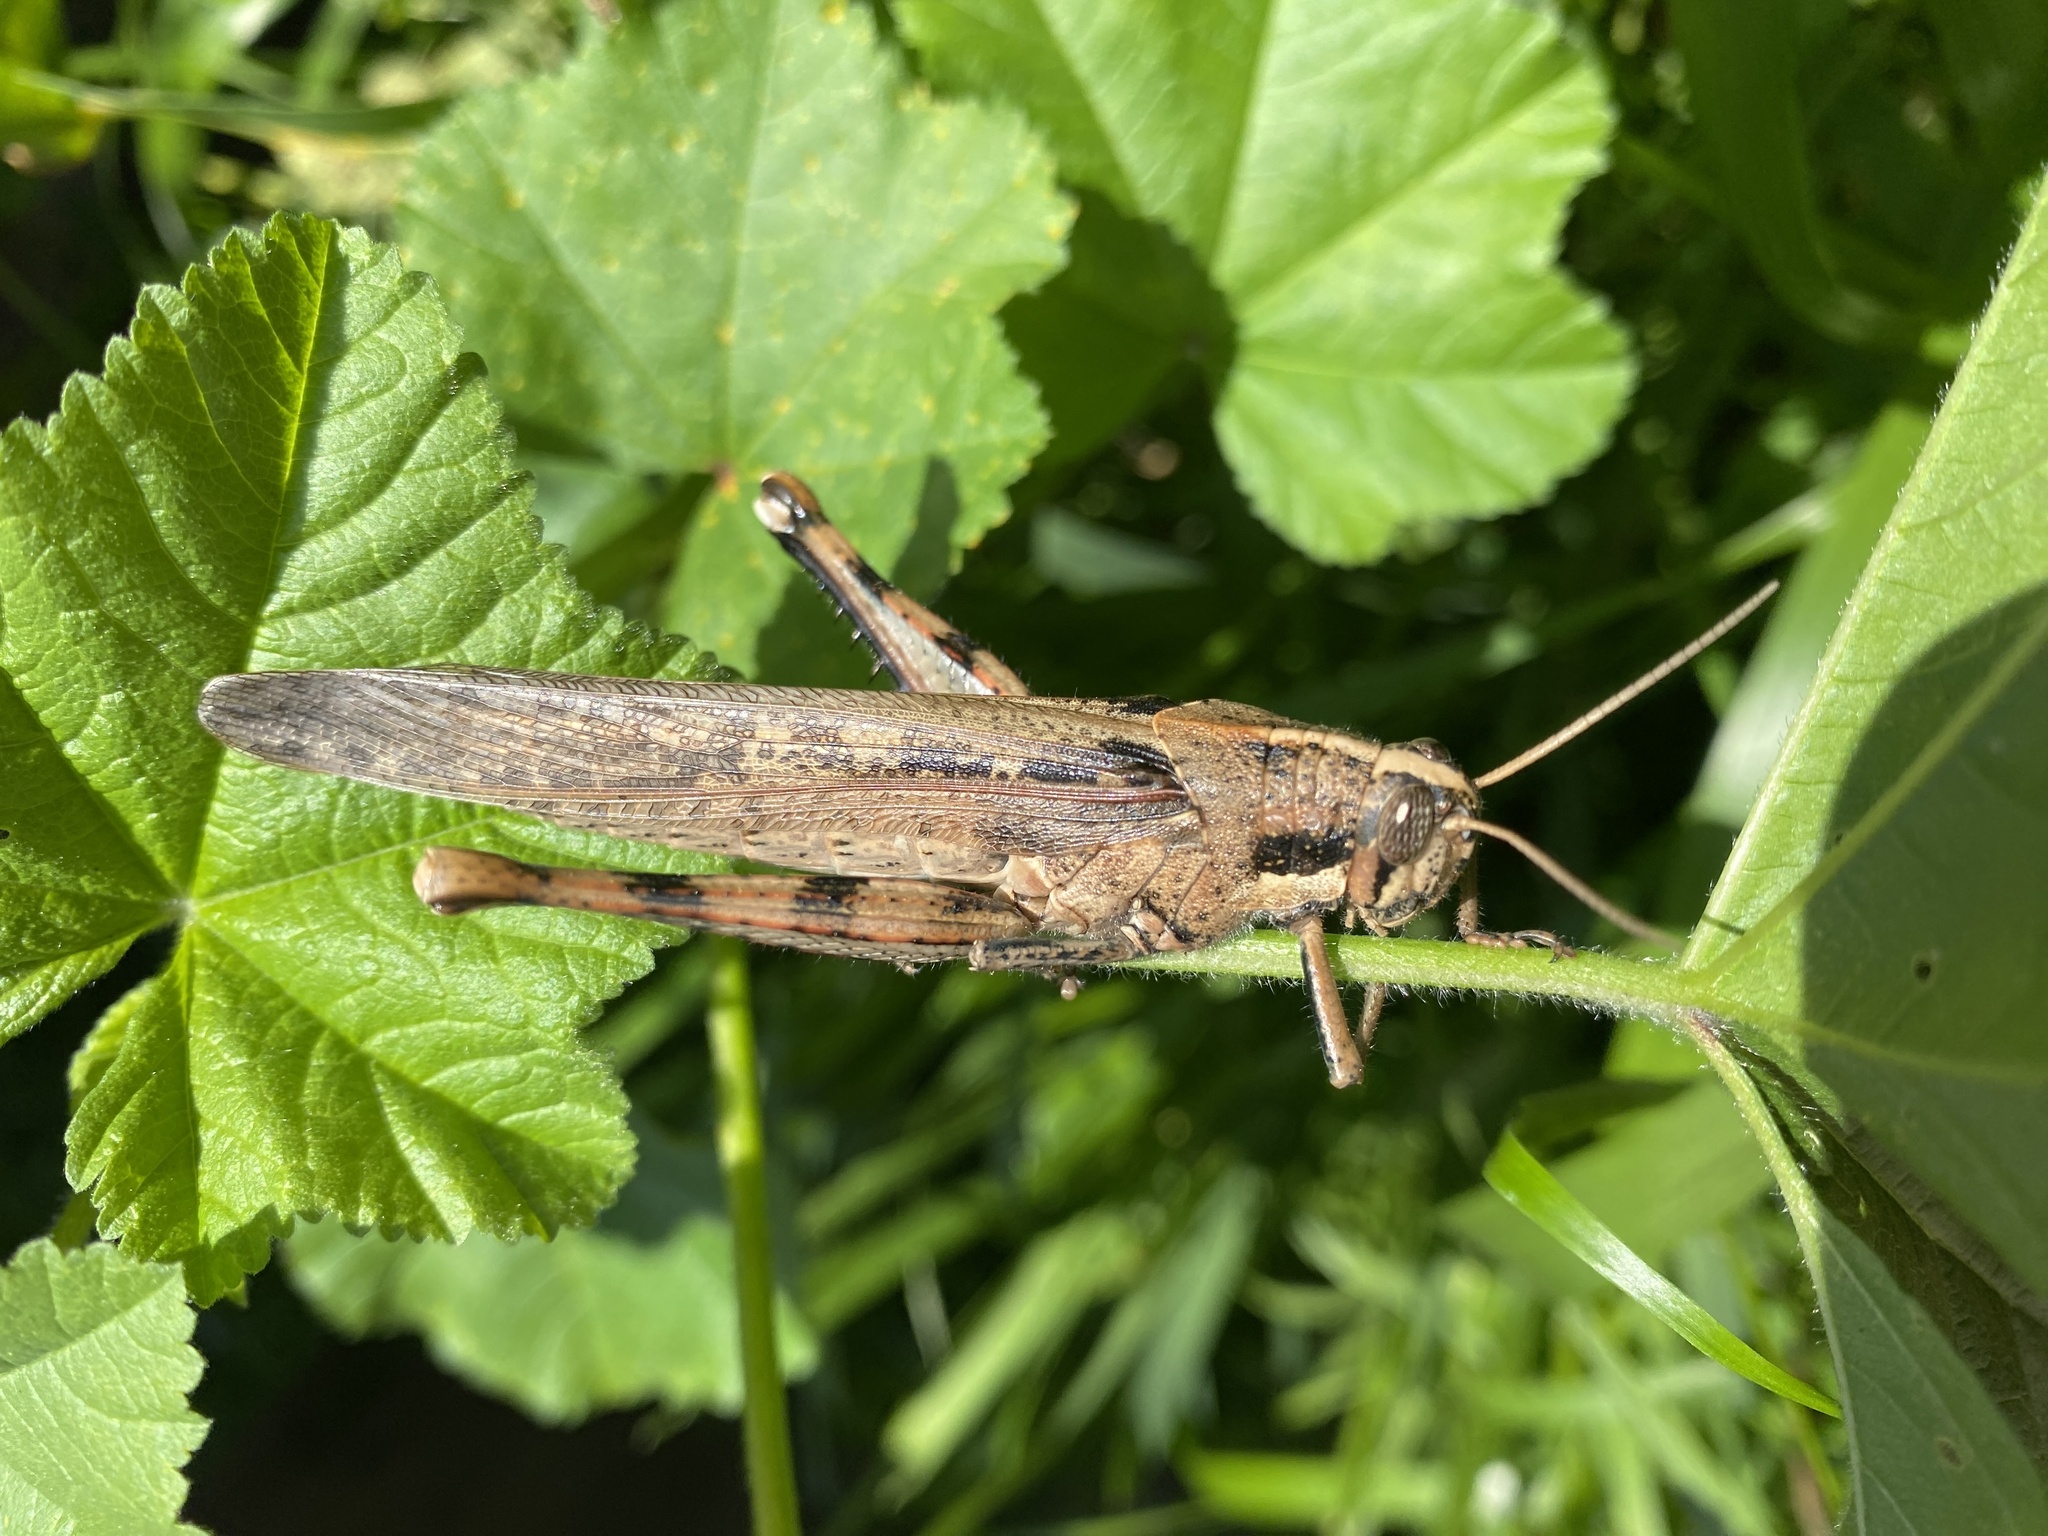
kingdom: Animalia
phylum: Arthropoda
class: Insecta
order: Orthoptera
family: Acrididae
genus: Schistocerca
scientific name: Schistocerca nitens
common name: Vagrant grasshopper
